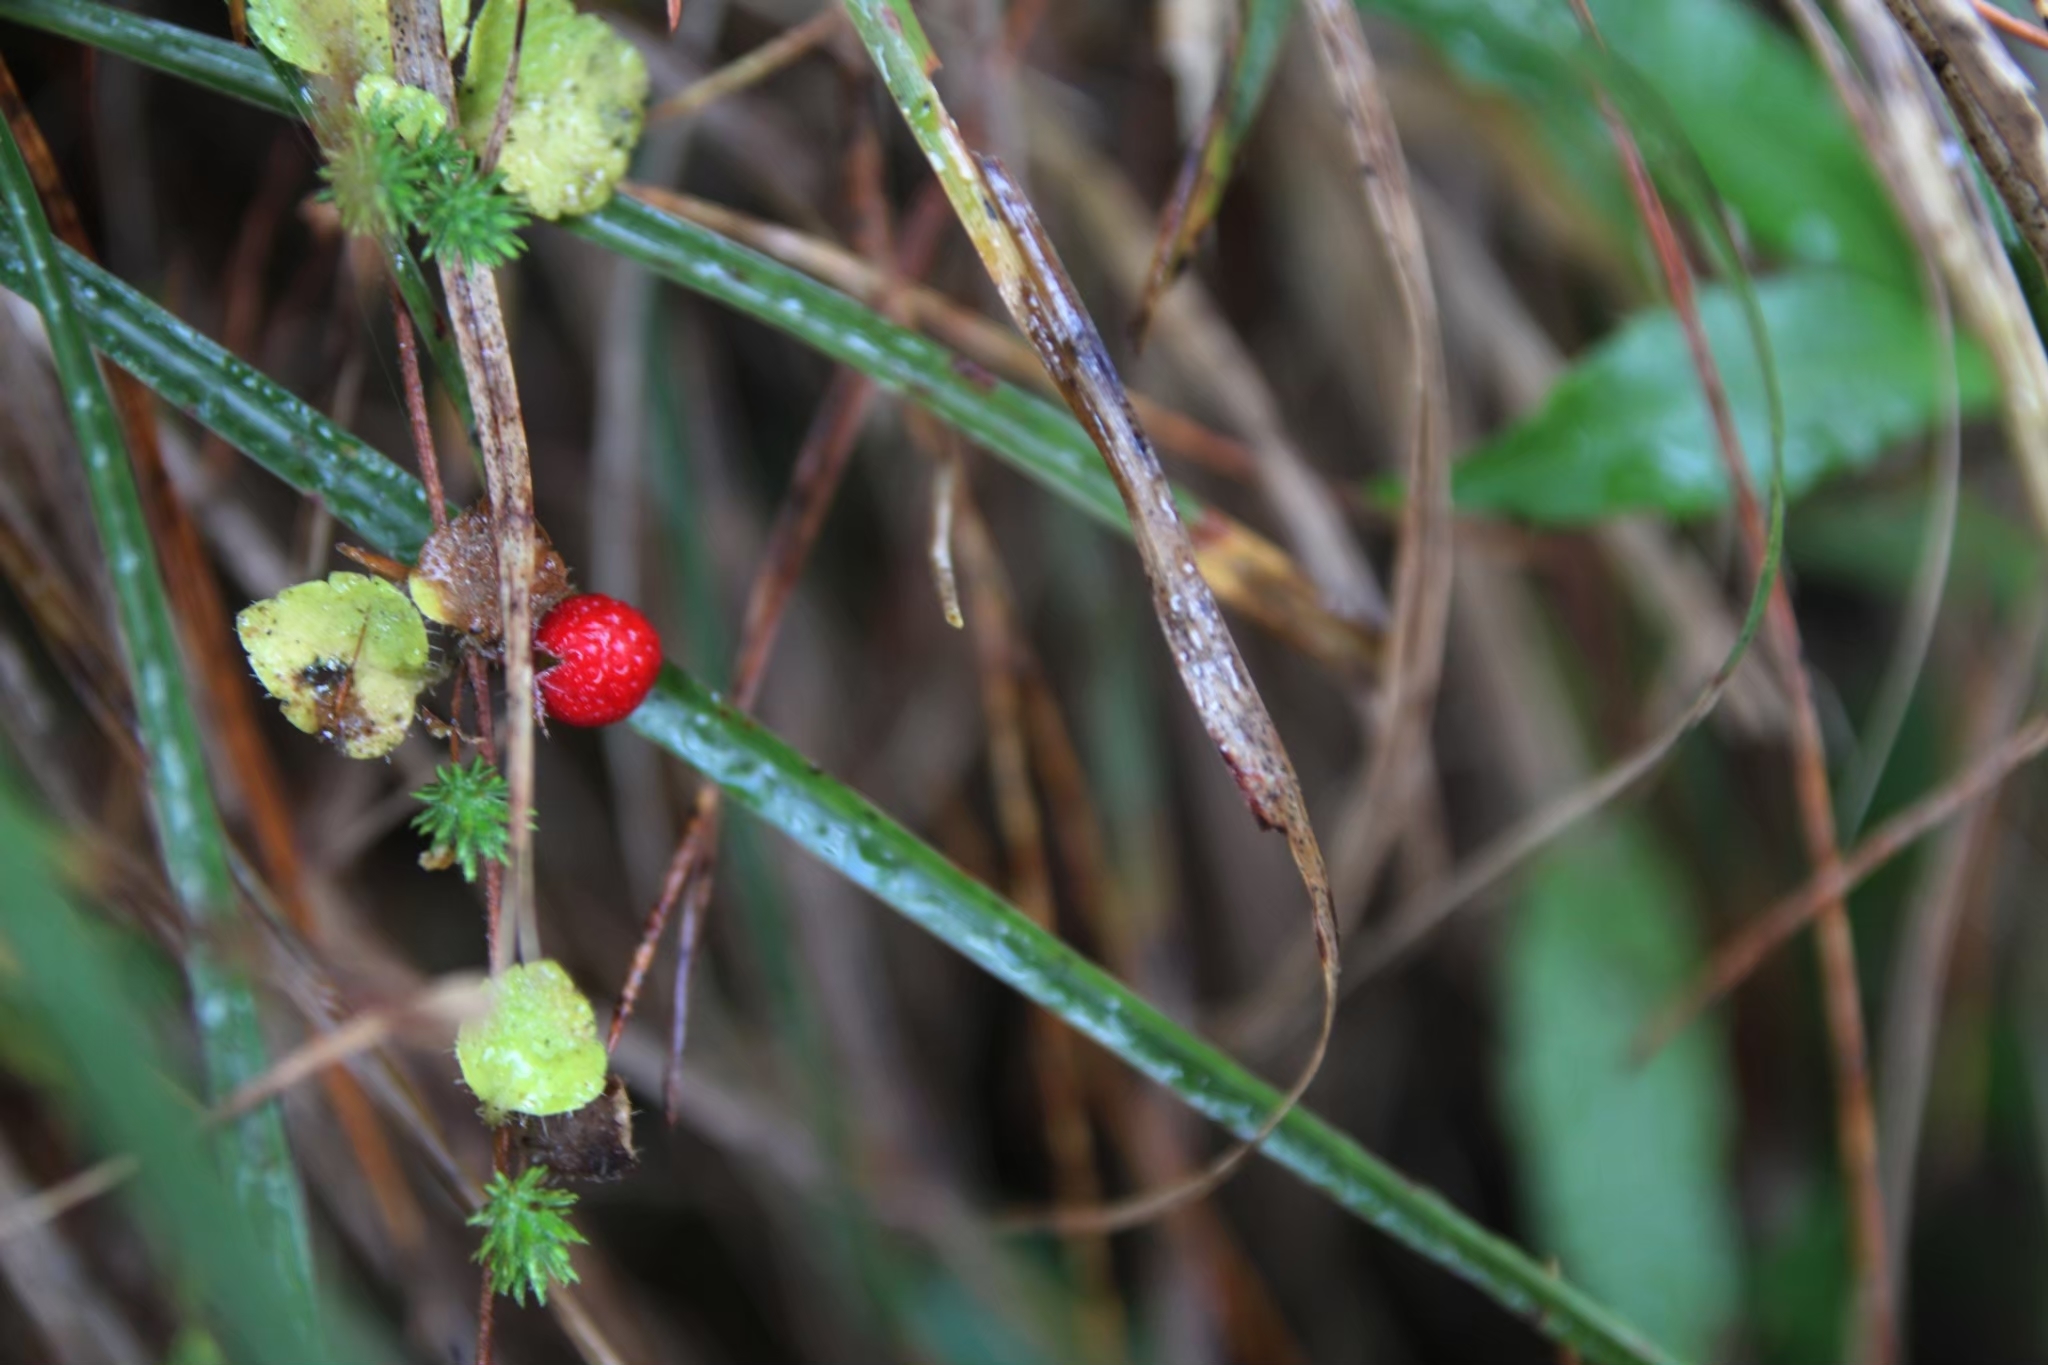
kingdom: Plantae
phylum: Tracheophyta
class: Magnoliopsida
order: Lamiales
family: Plantaginaceae
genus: Hemiphragma
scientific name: Hemiphragma heterophyllum
